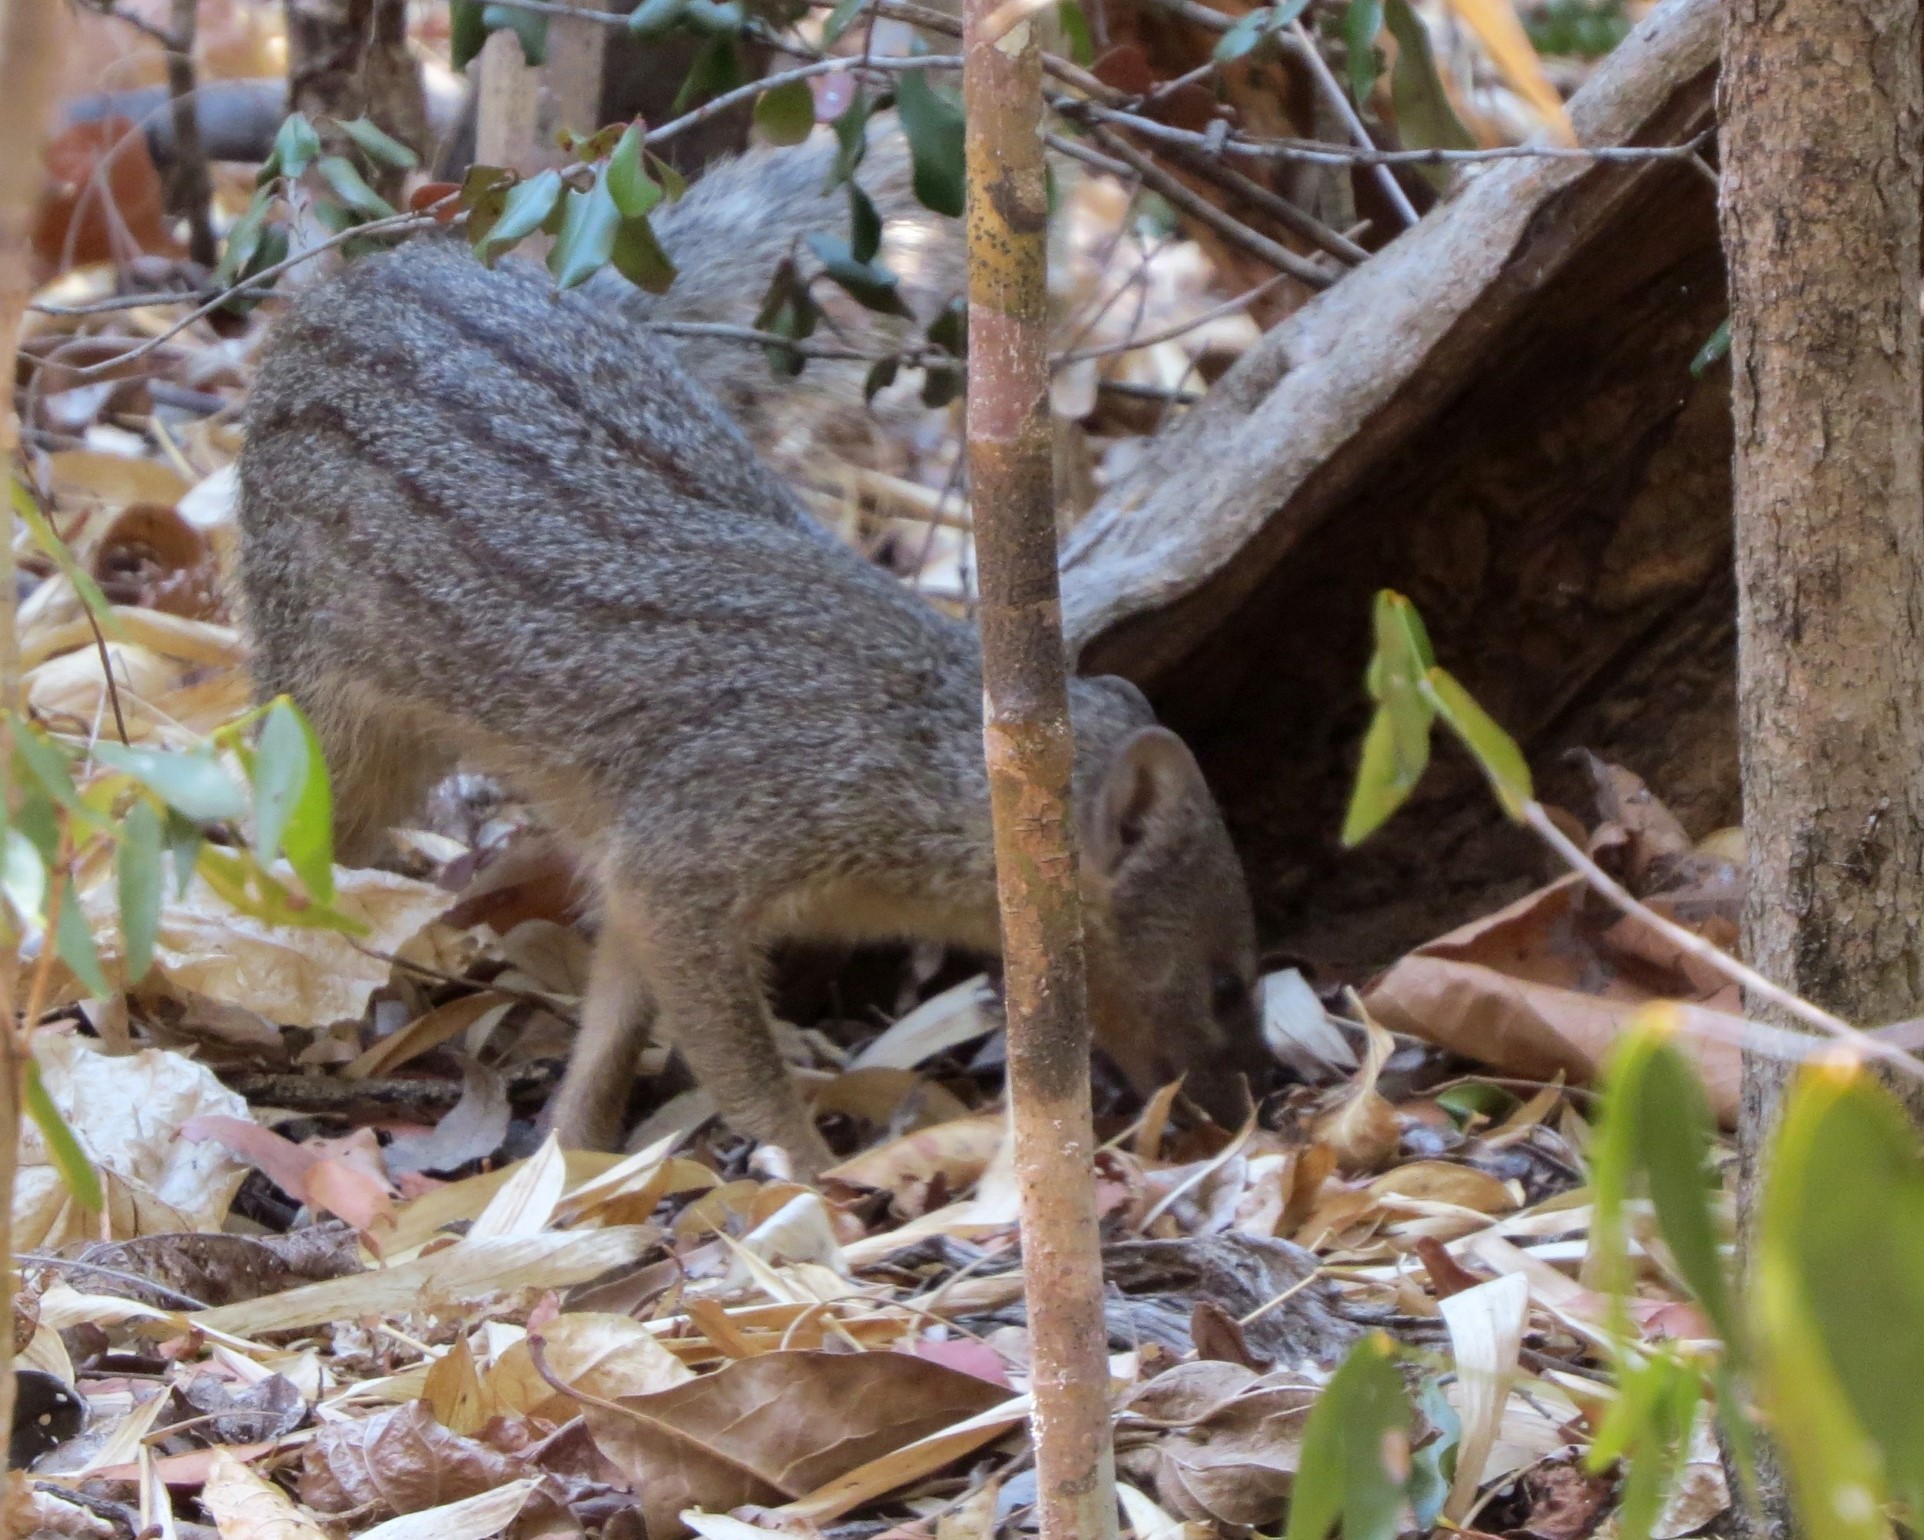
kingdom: Animalia
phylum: Chordata
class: Mammalia
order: Carnivora
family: Eupleridae
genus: Mungotictis
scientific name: Mungotictis decemlineata
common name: Narrow-striped mongoose
